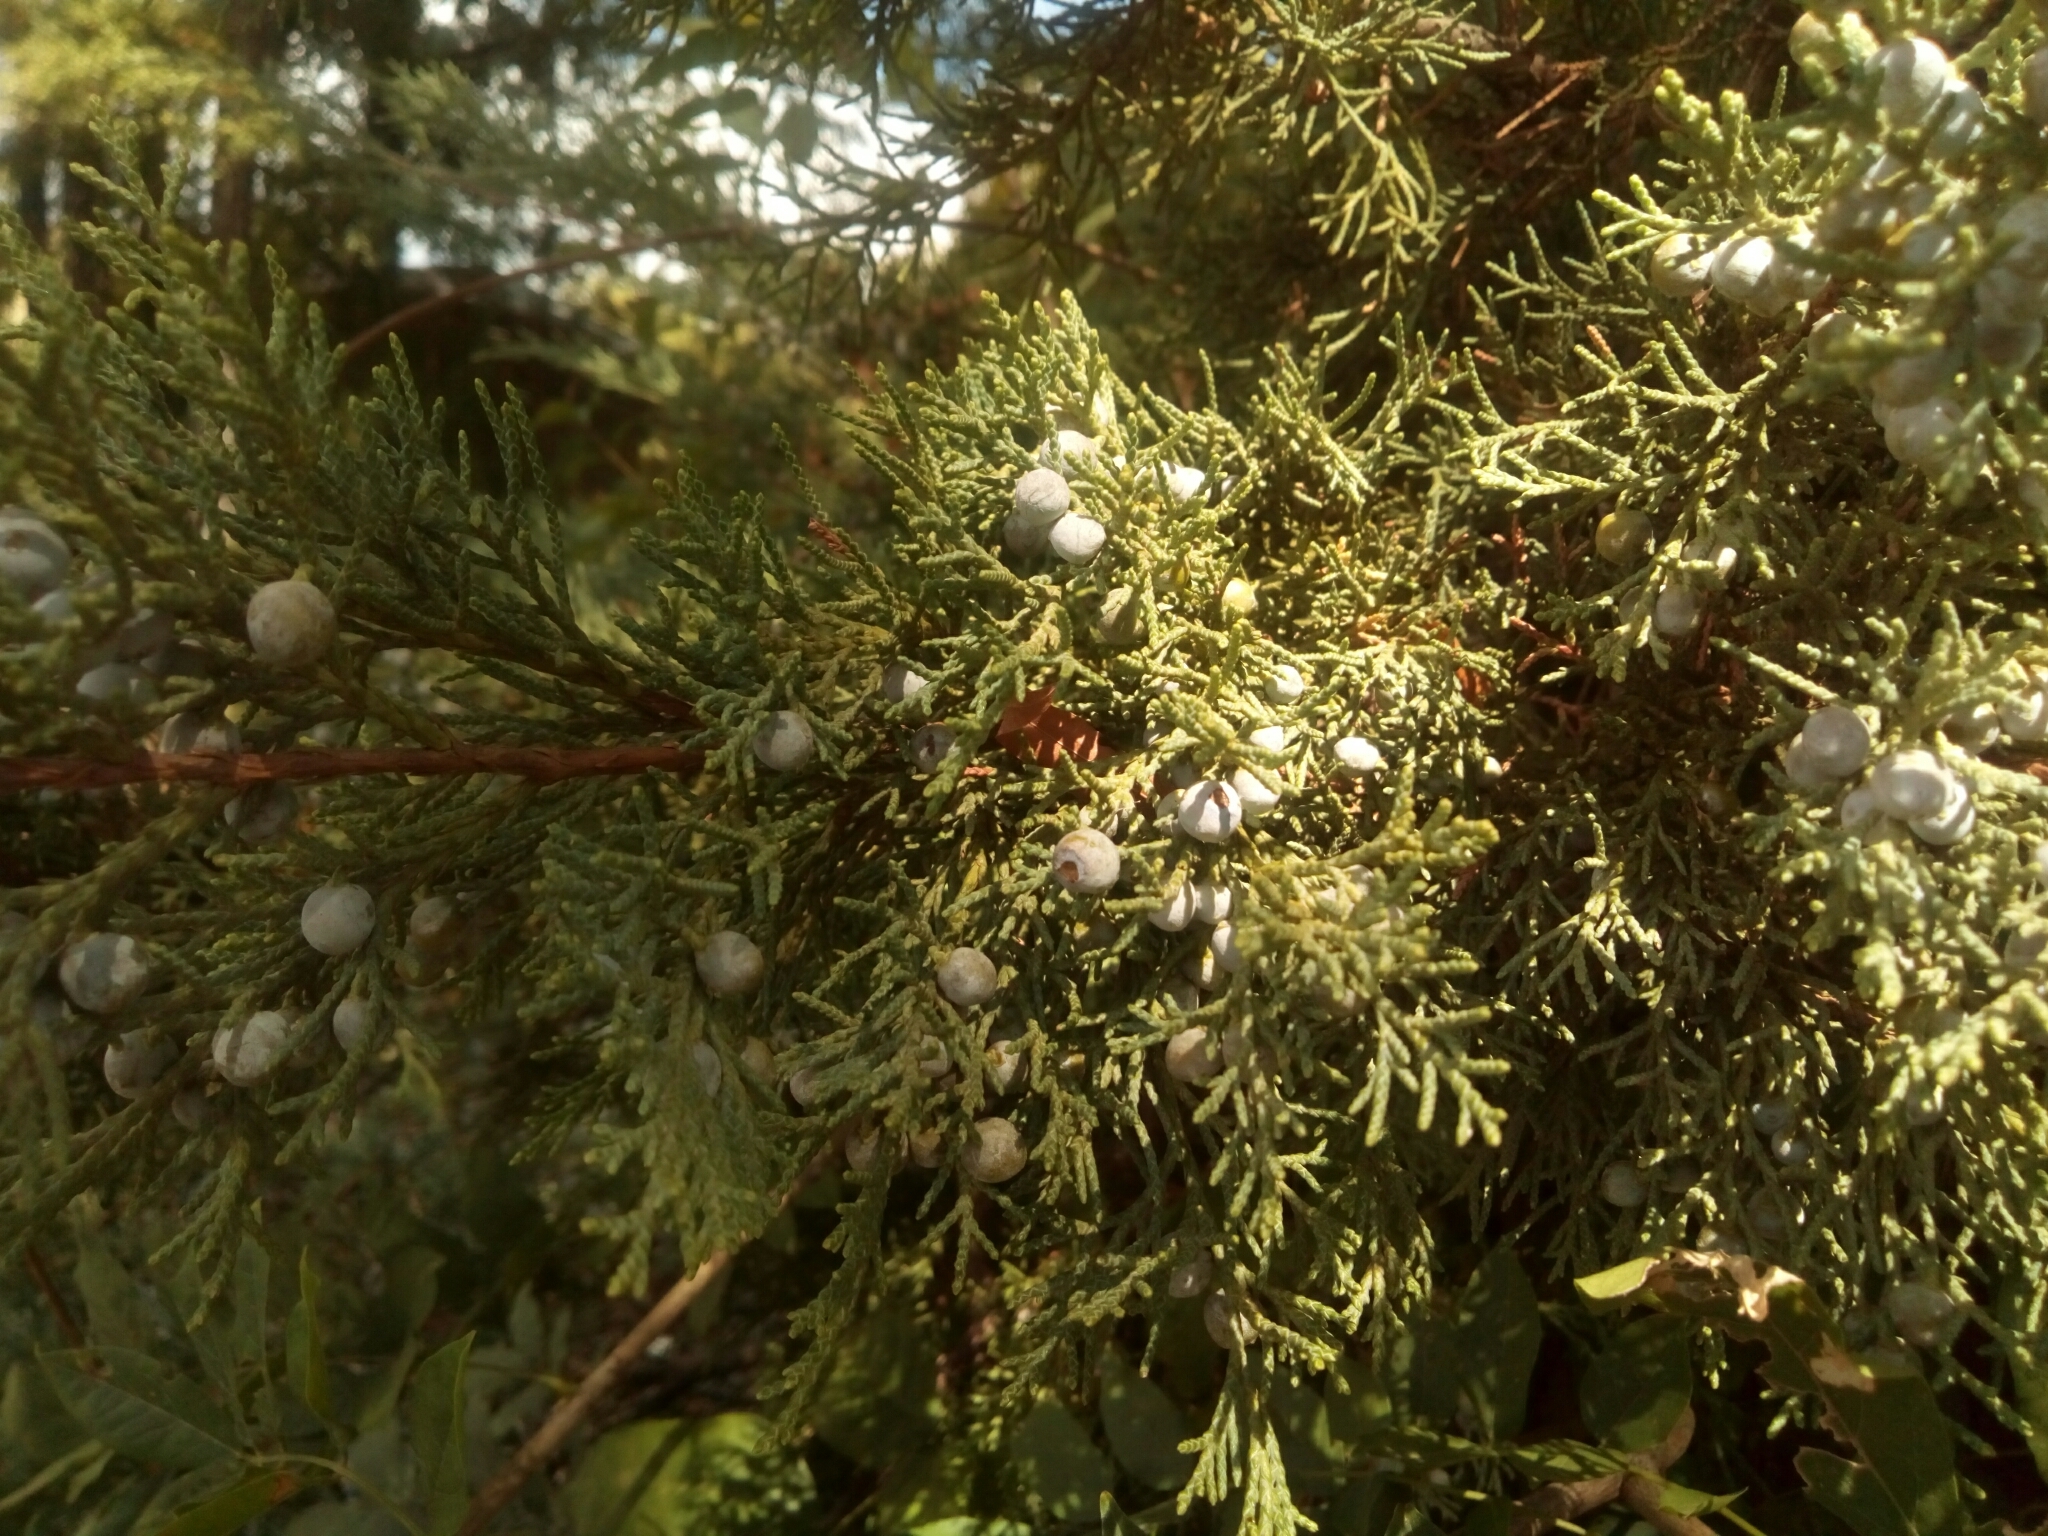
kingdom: Plantae
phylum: Tracheophyta
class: Pinopsida
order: Pinales
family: Cupressaceae
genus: Juniperus
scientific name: Juniperus virginiana
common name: Red juniper
